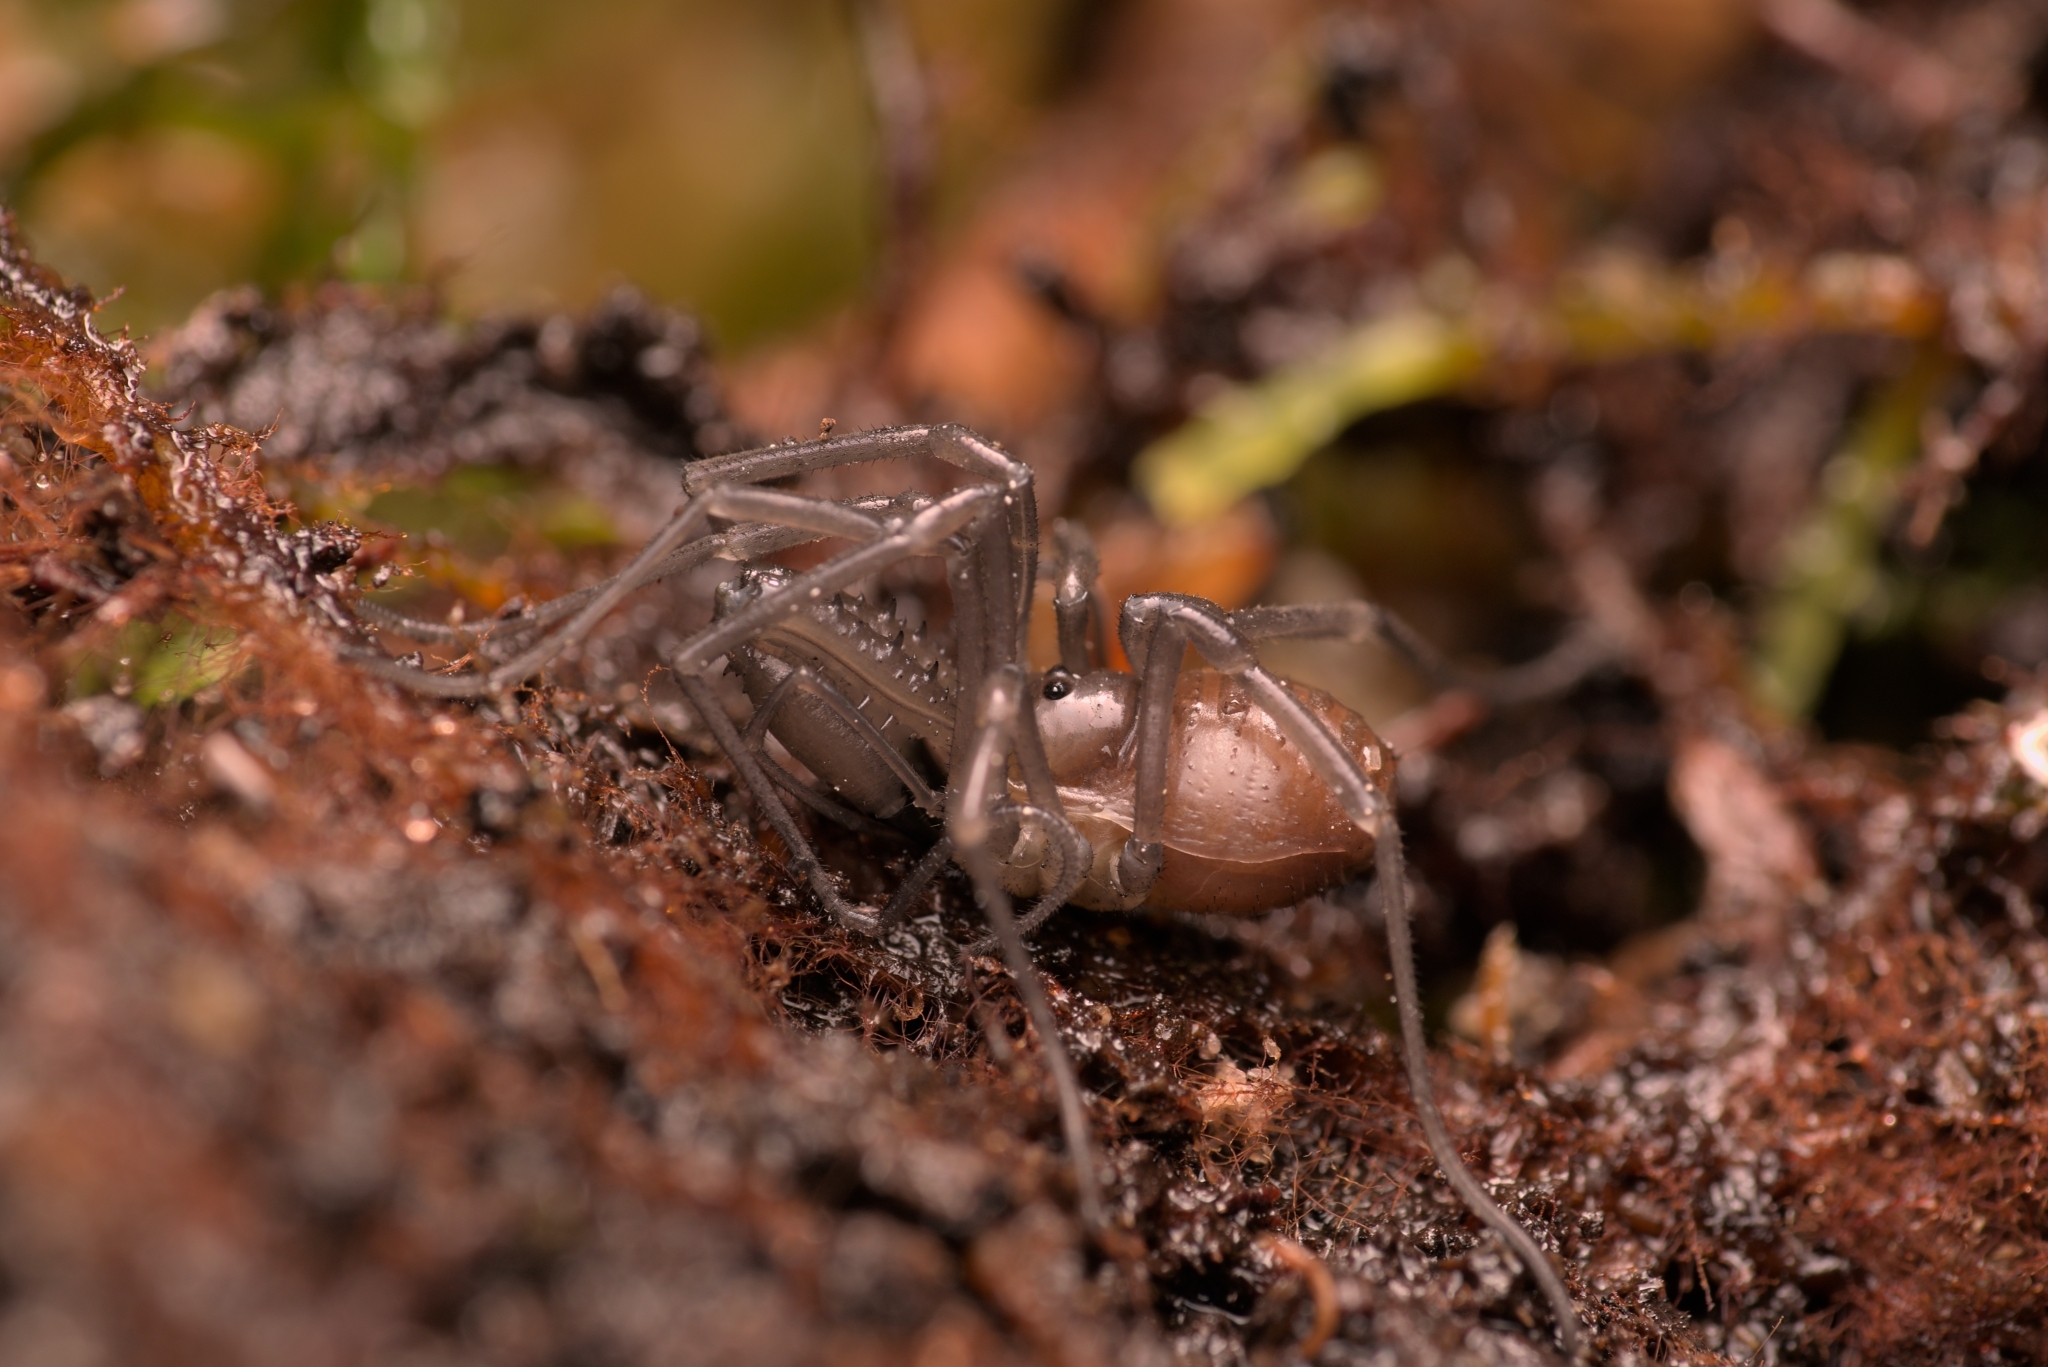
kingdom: Animalia
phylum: Arthropoda
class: Arachnida
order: Opiliones
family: Ischyropsalididae
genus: Ischyropsalis
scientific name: Ischyropsalis luteipes
